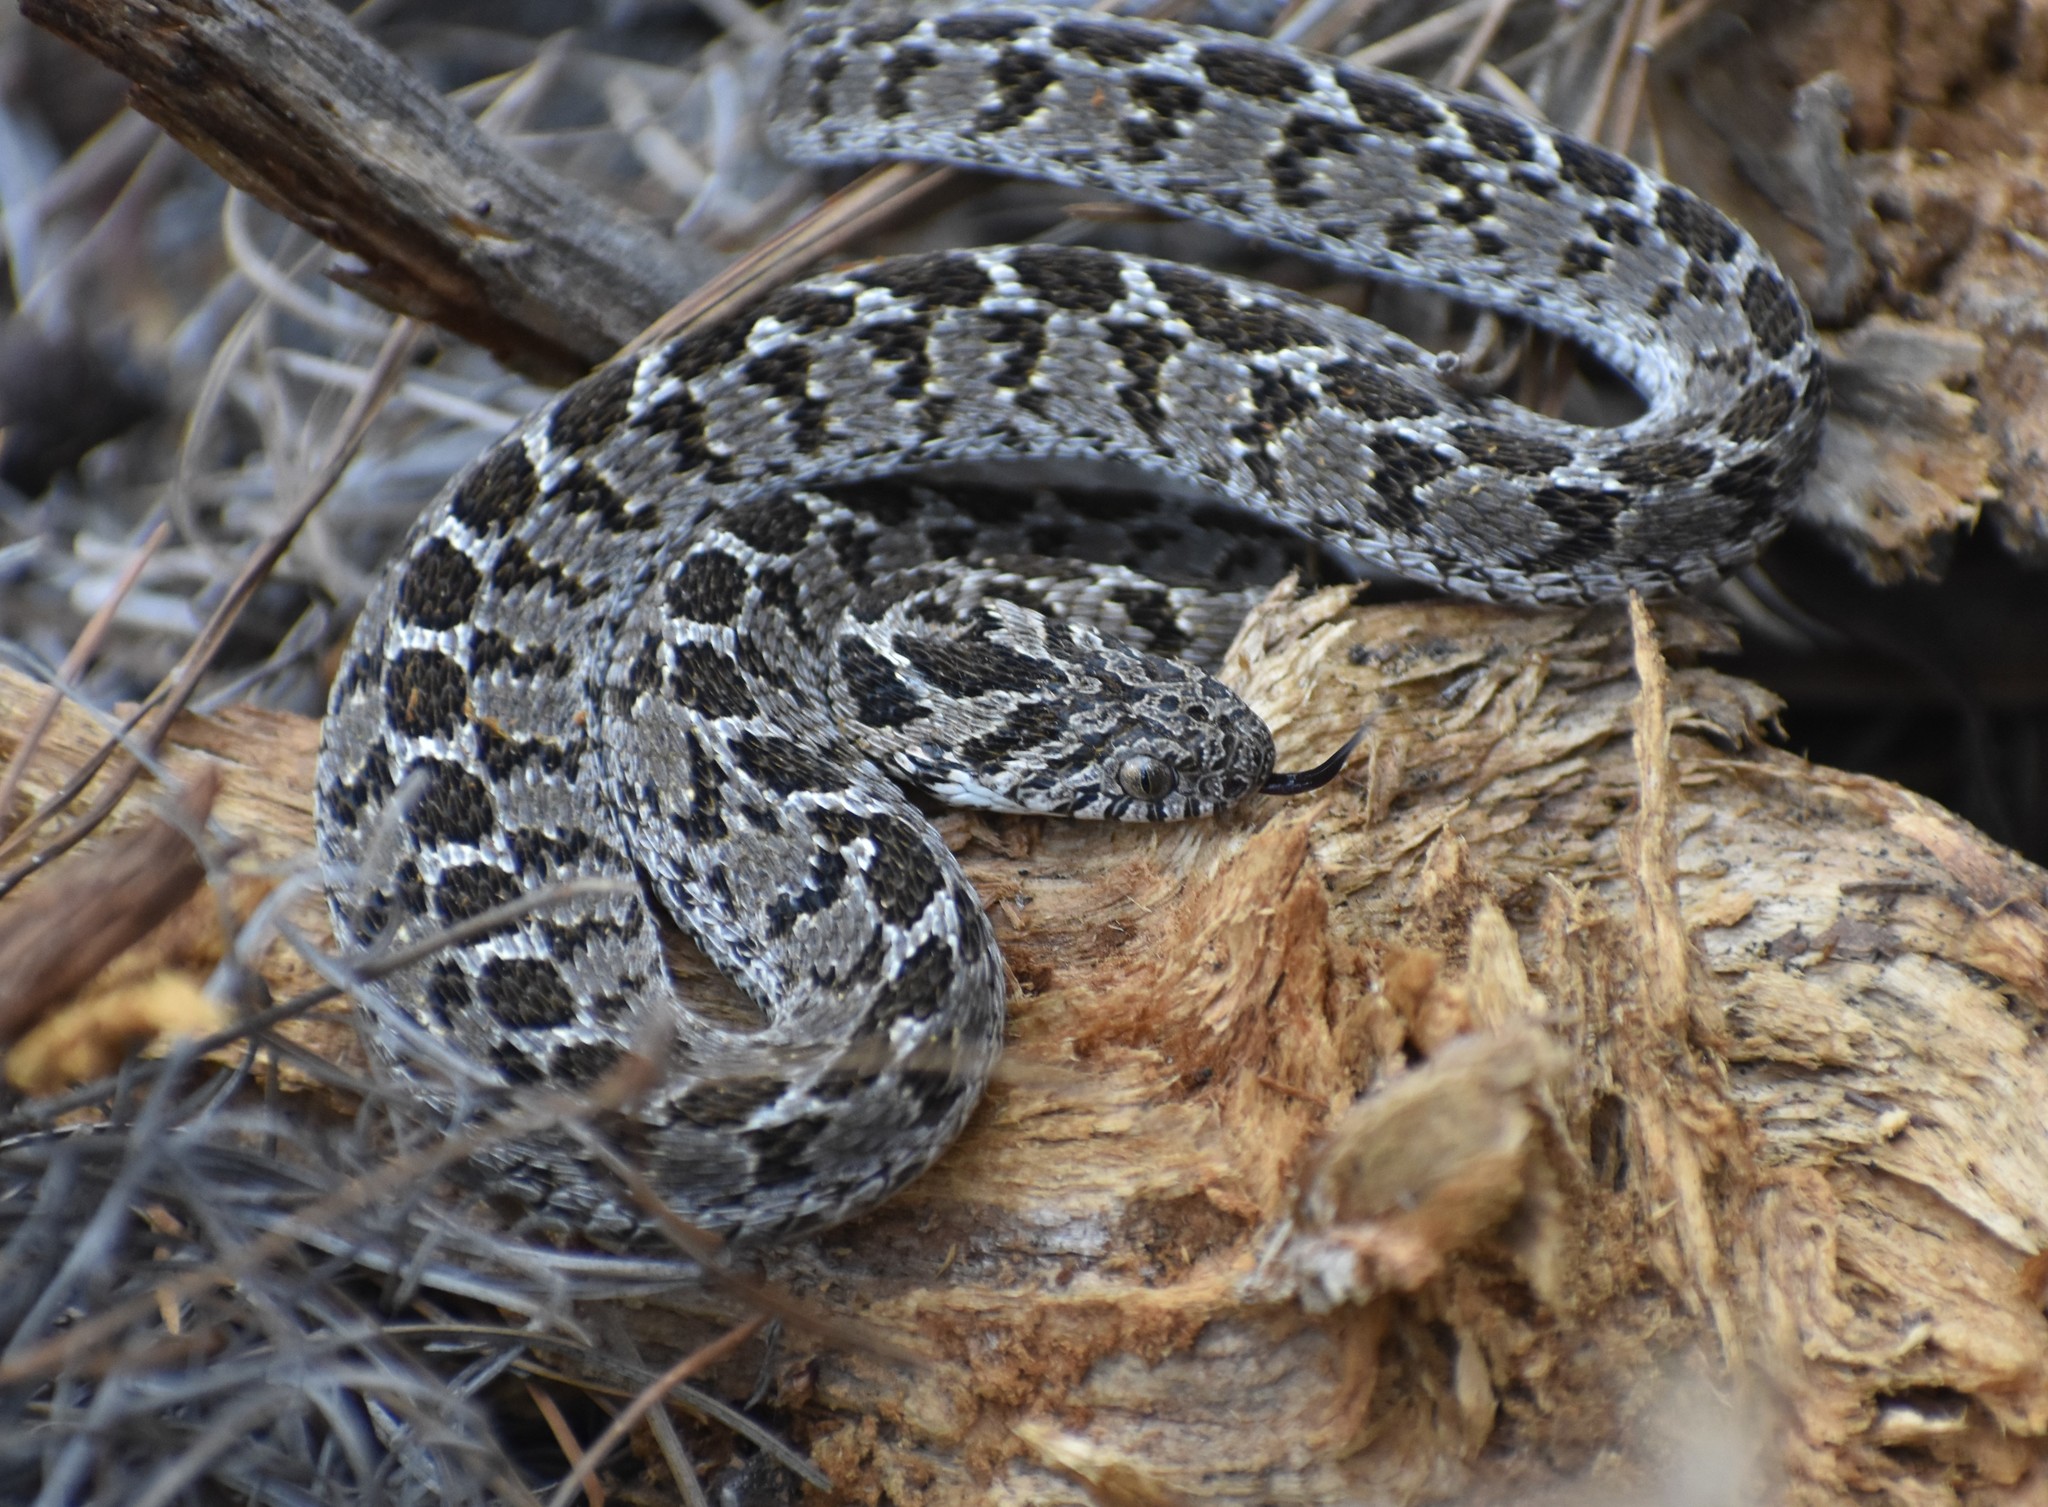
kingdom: Animalia
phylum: Chordata
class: Squamata
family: Colubridae
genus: Dasypeltis
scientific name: Dasypeltis scabra
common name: Common egg eater
